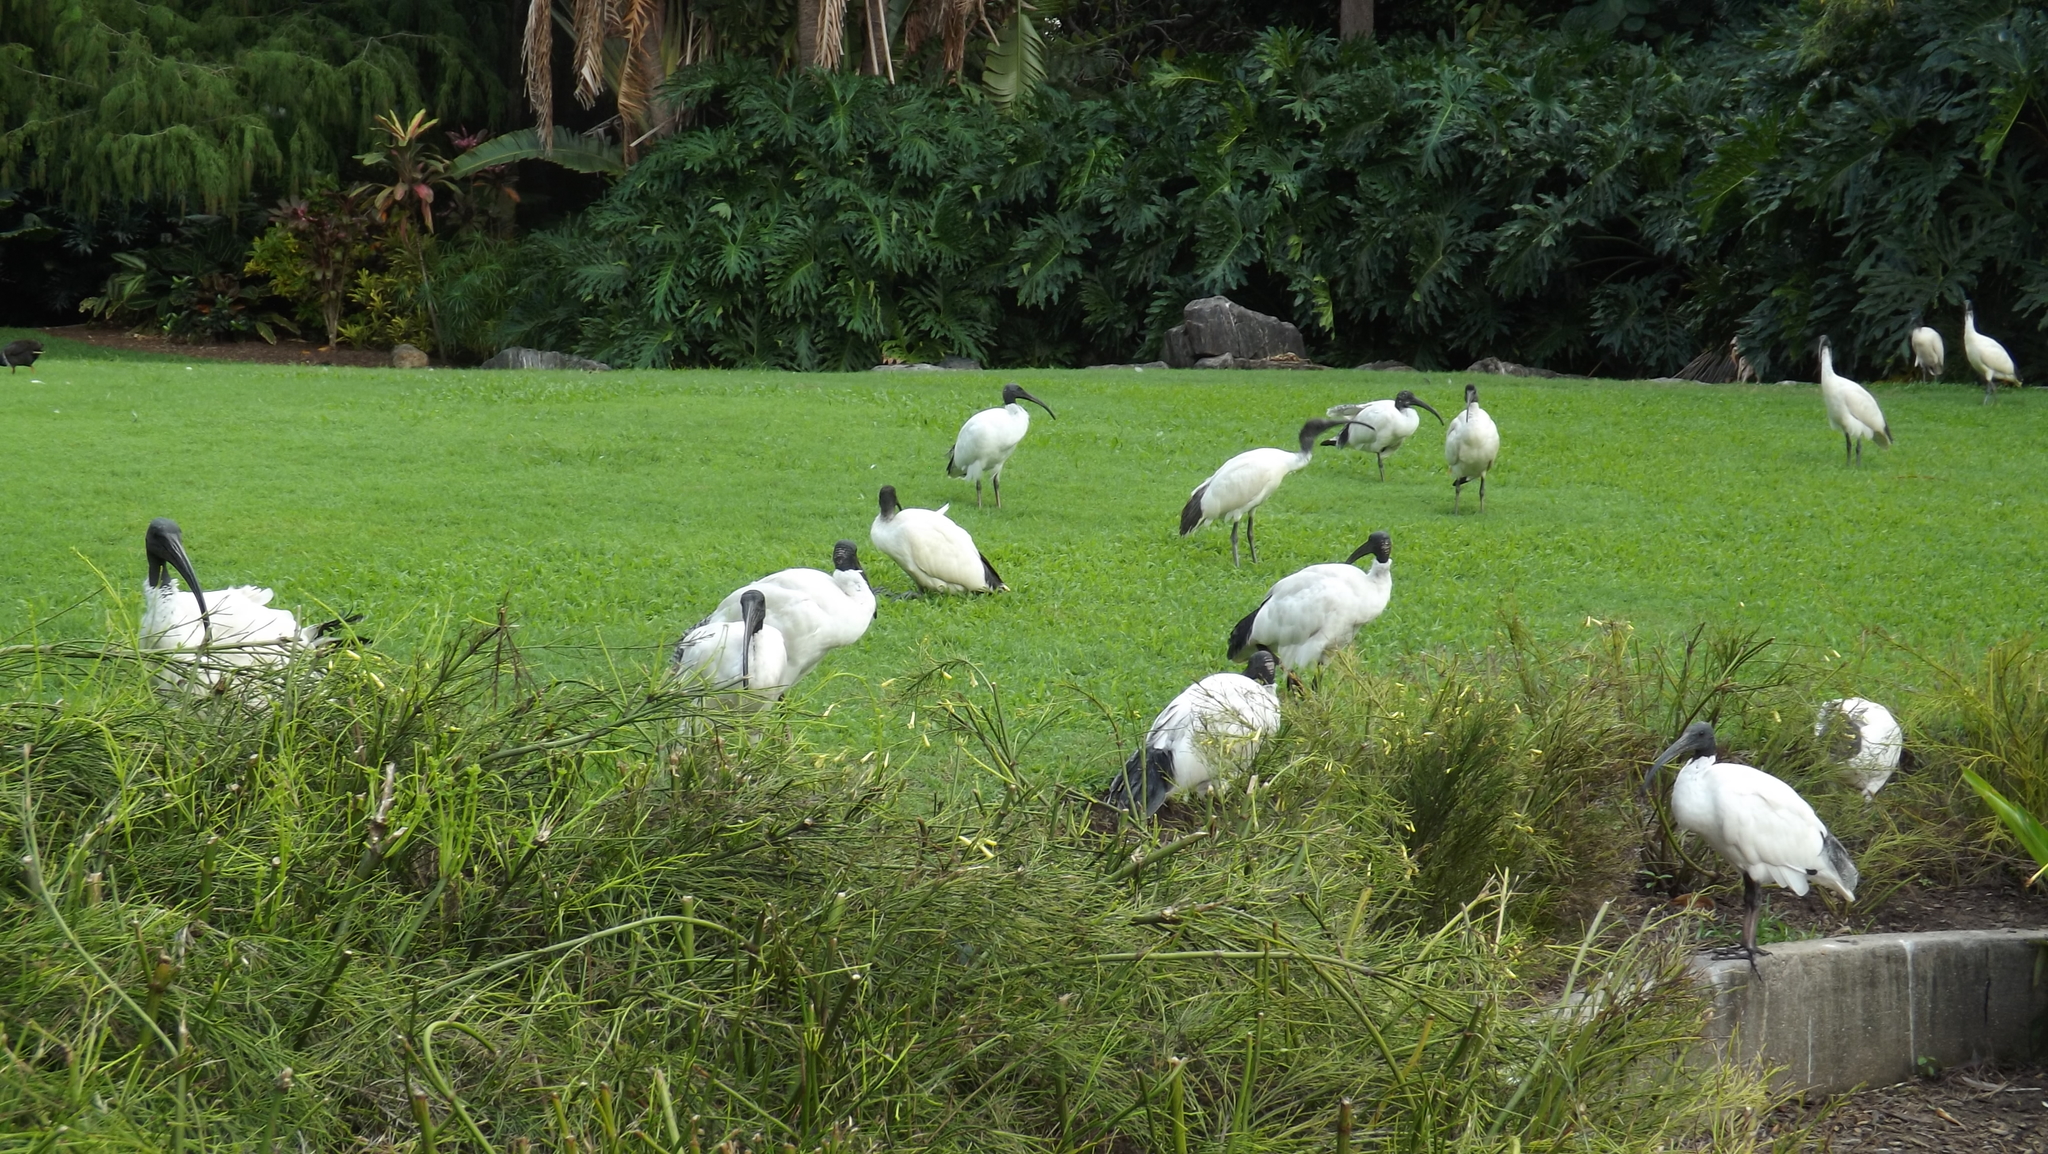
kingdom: Animalia
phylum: Chordata
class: Aves
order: Pelecaniformes
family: Threskiornithidae
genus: Threskiornis
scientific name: Threskiornis molucca
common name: Australian white ibis
